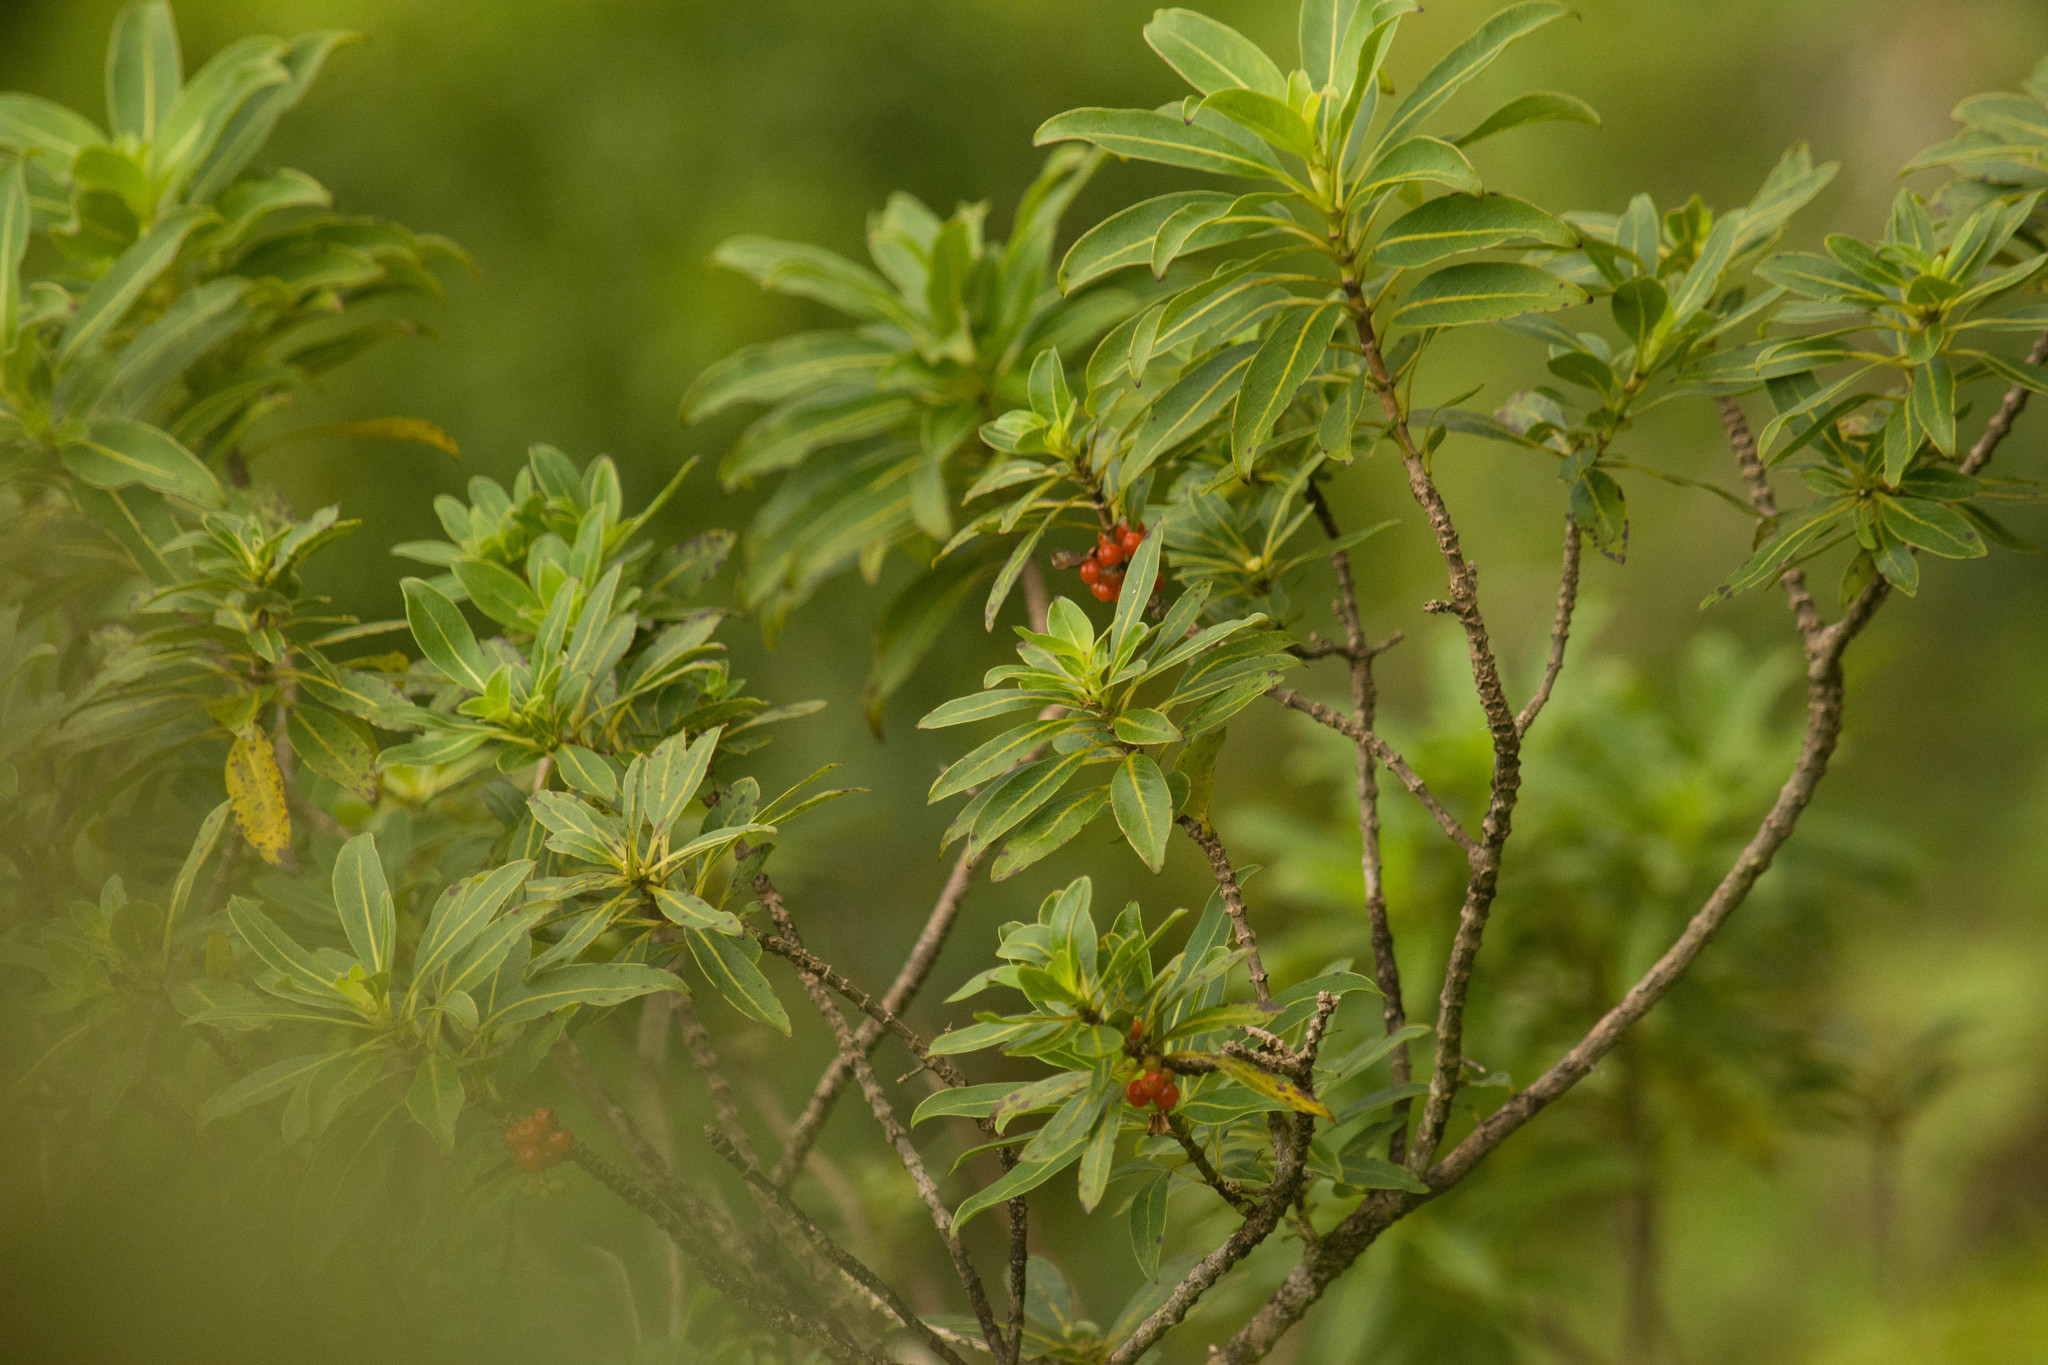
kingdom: Plantae
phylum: Tracheophyta
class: Magnoliopsida
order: Gentianales
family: Rubiaceae
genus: Coprosma
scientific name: Coprosma longifolia
